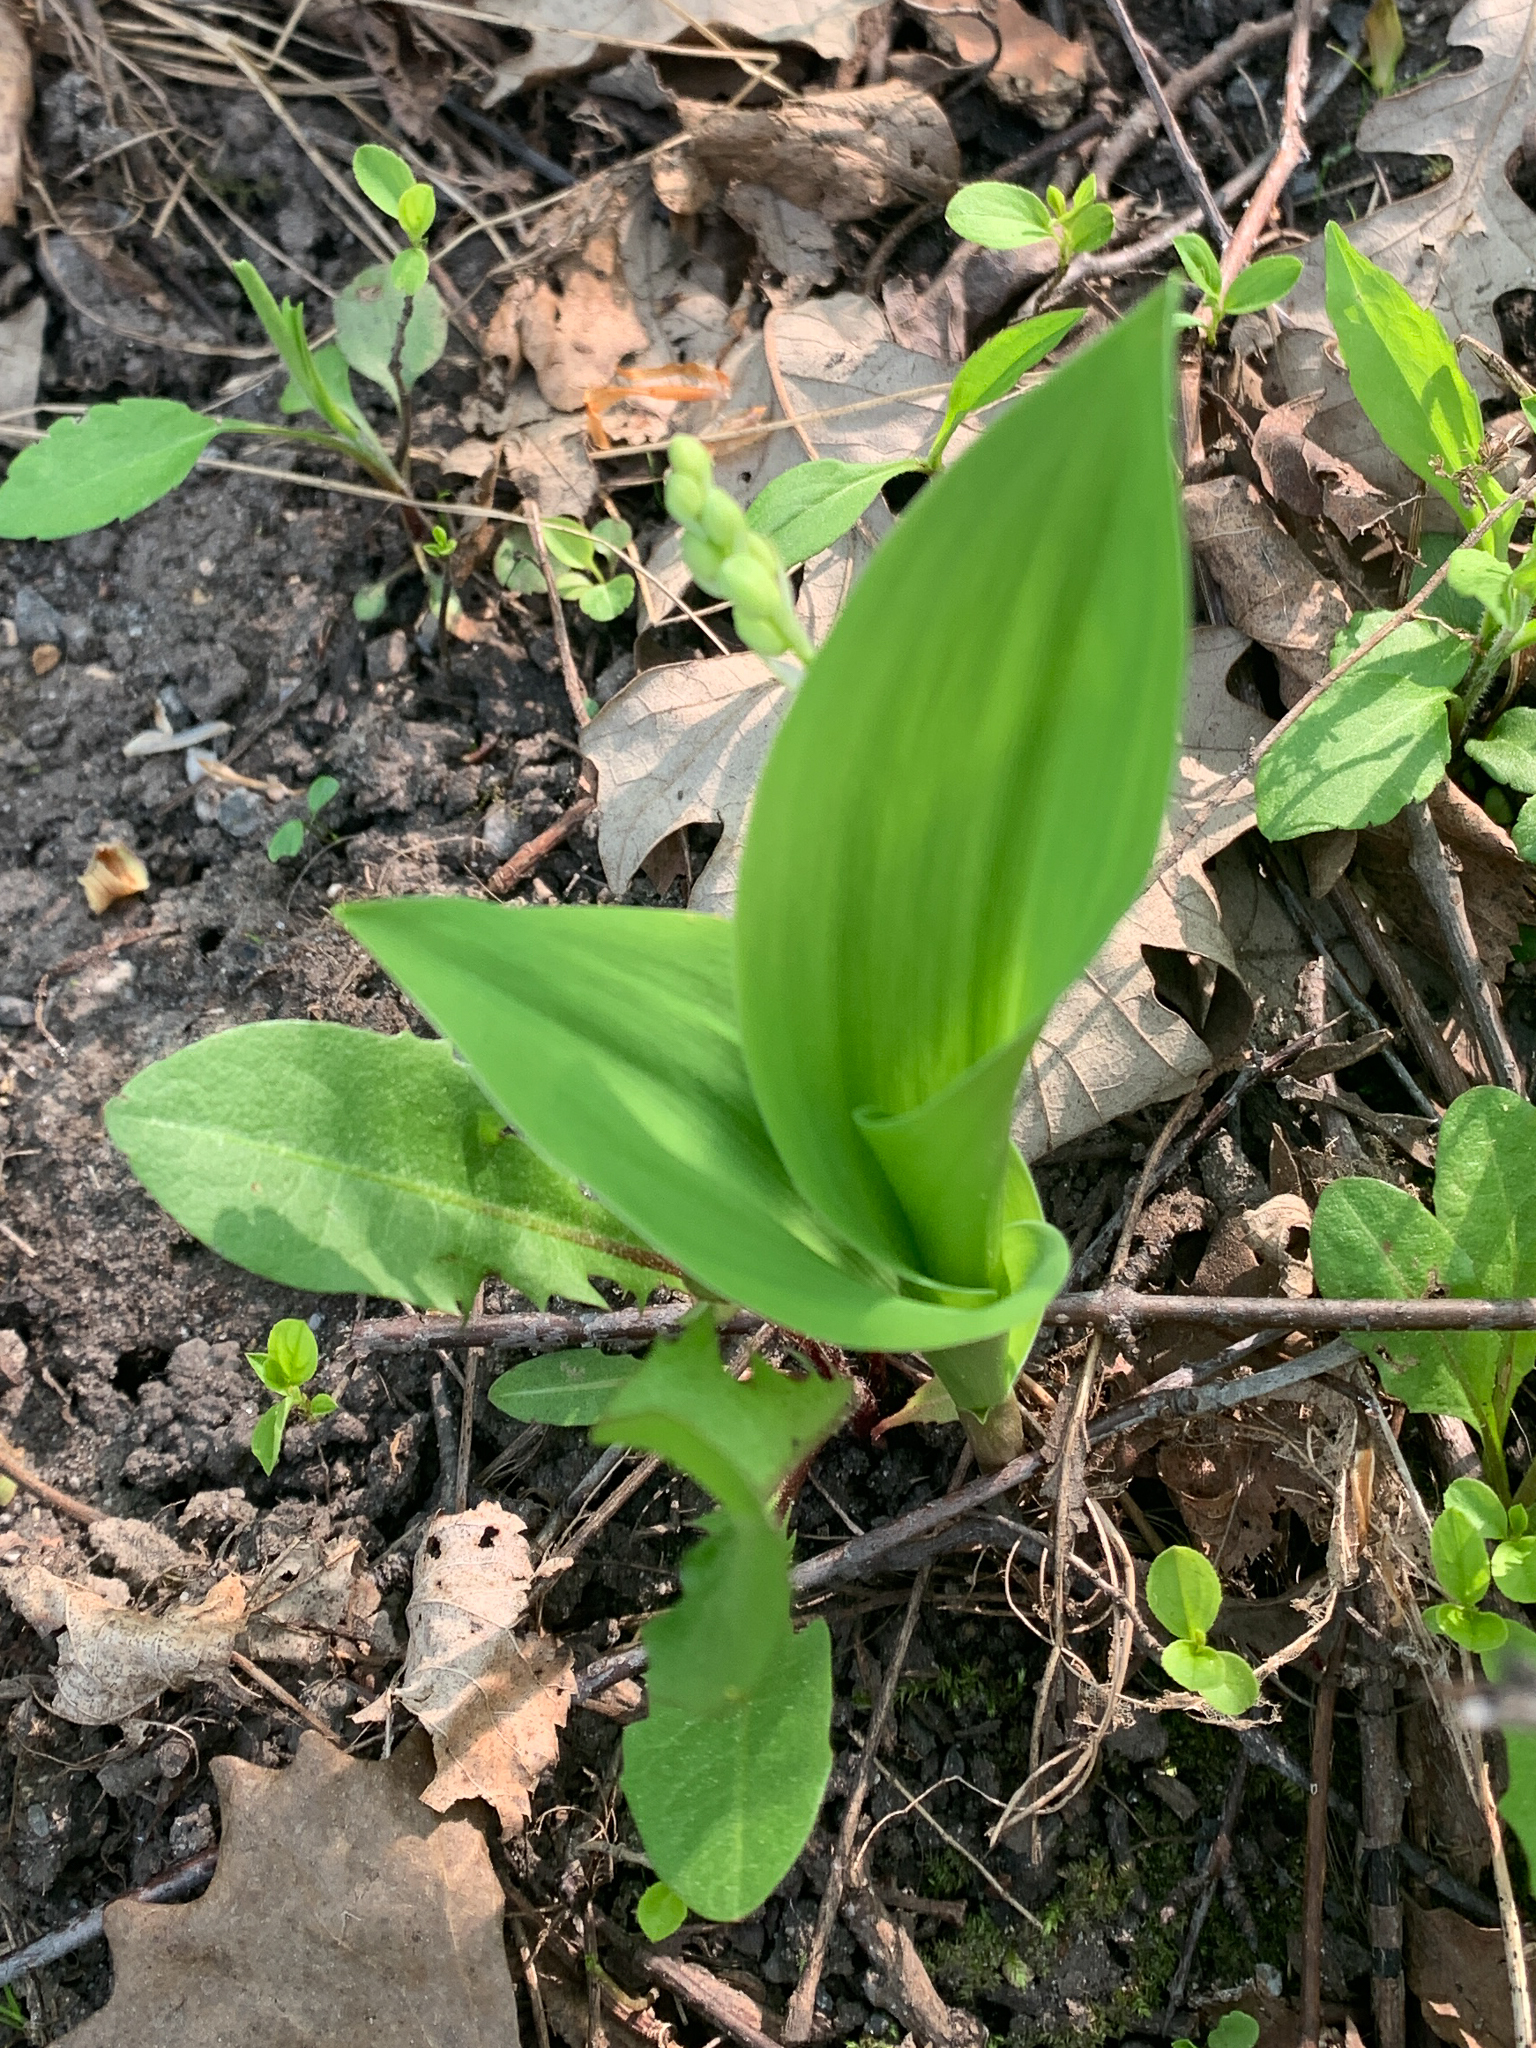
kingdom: Plantae
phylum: Tracheophyta
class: Liliopsida
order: Asparagales
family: Asparagaceae
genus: Convallaria
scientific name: Convallaria majalis
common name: Lily-of-the-valley
